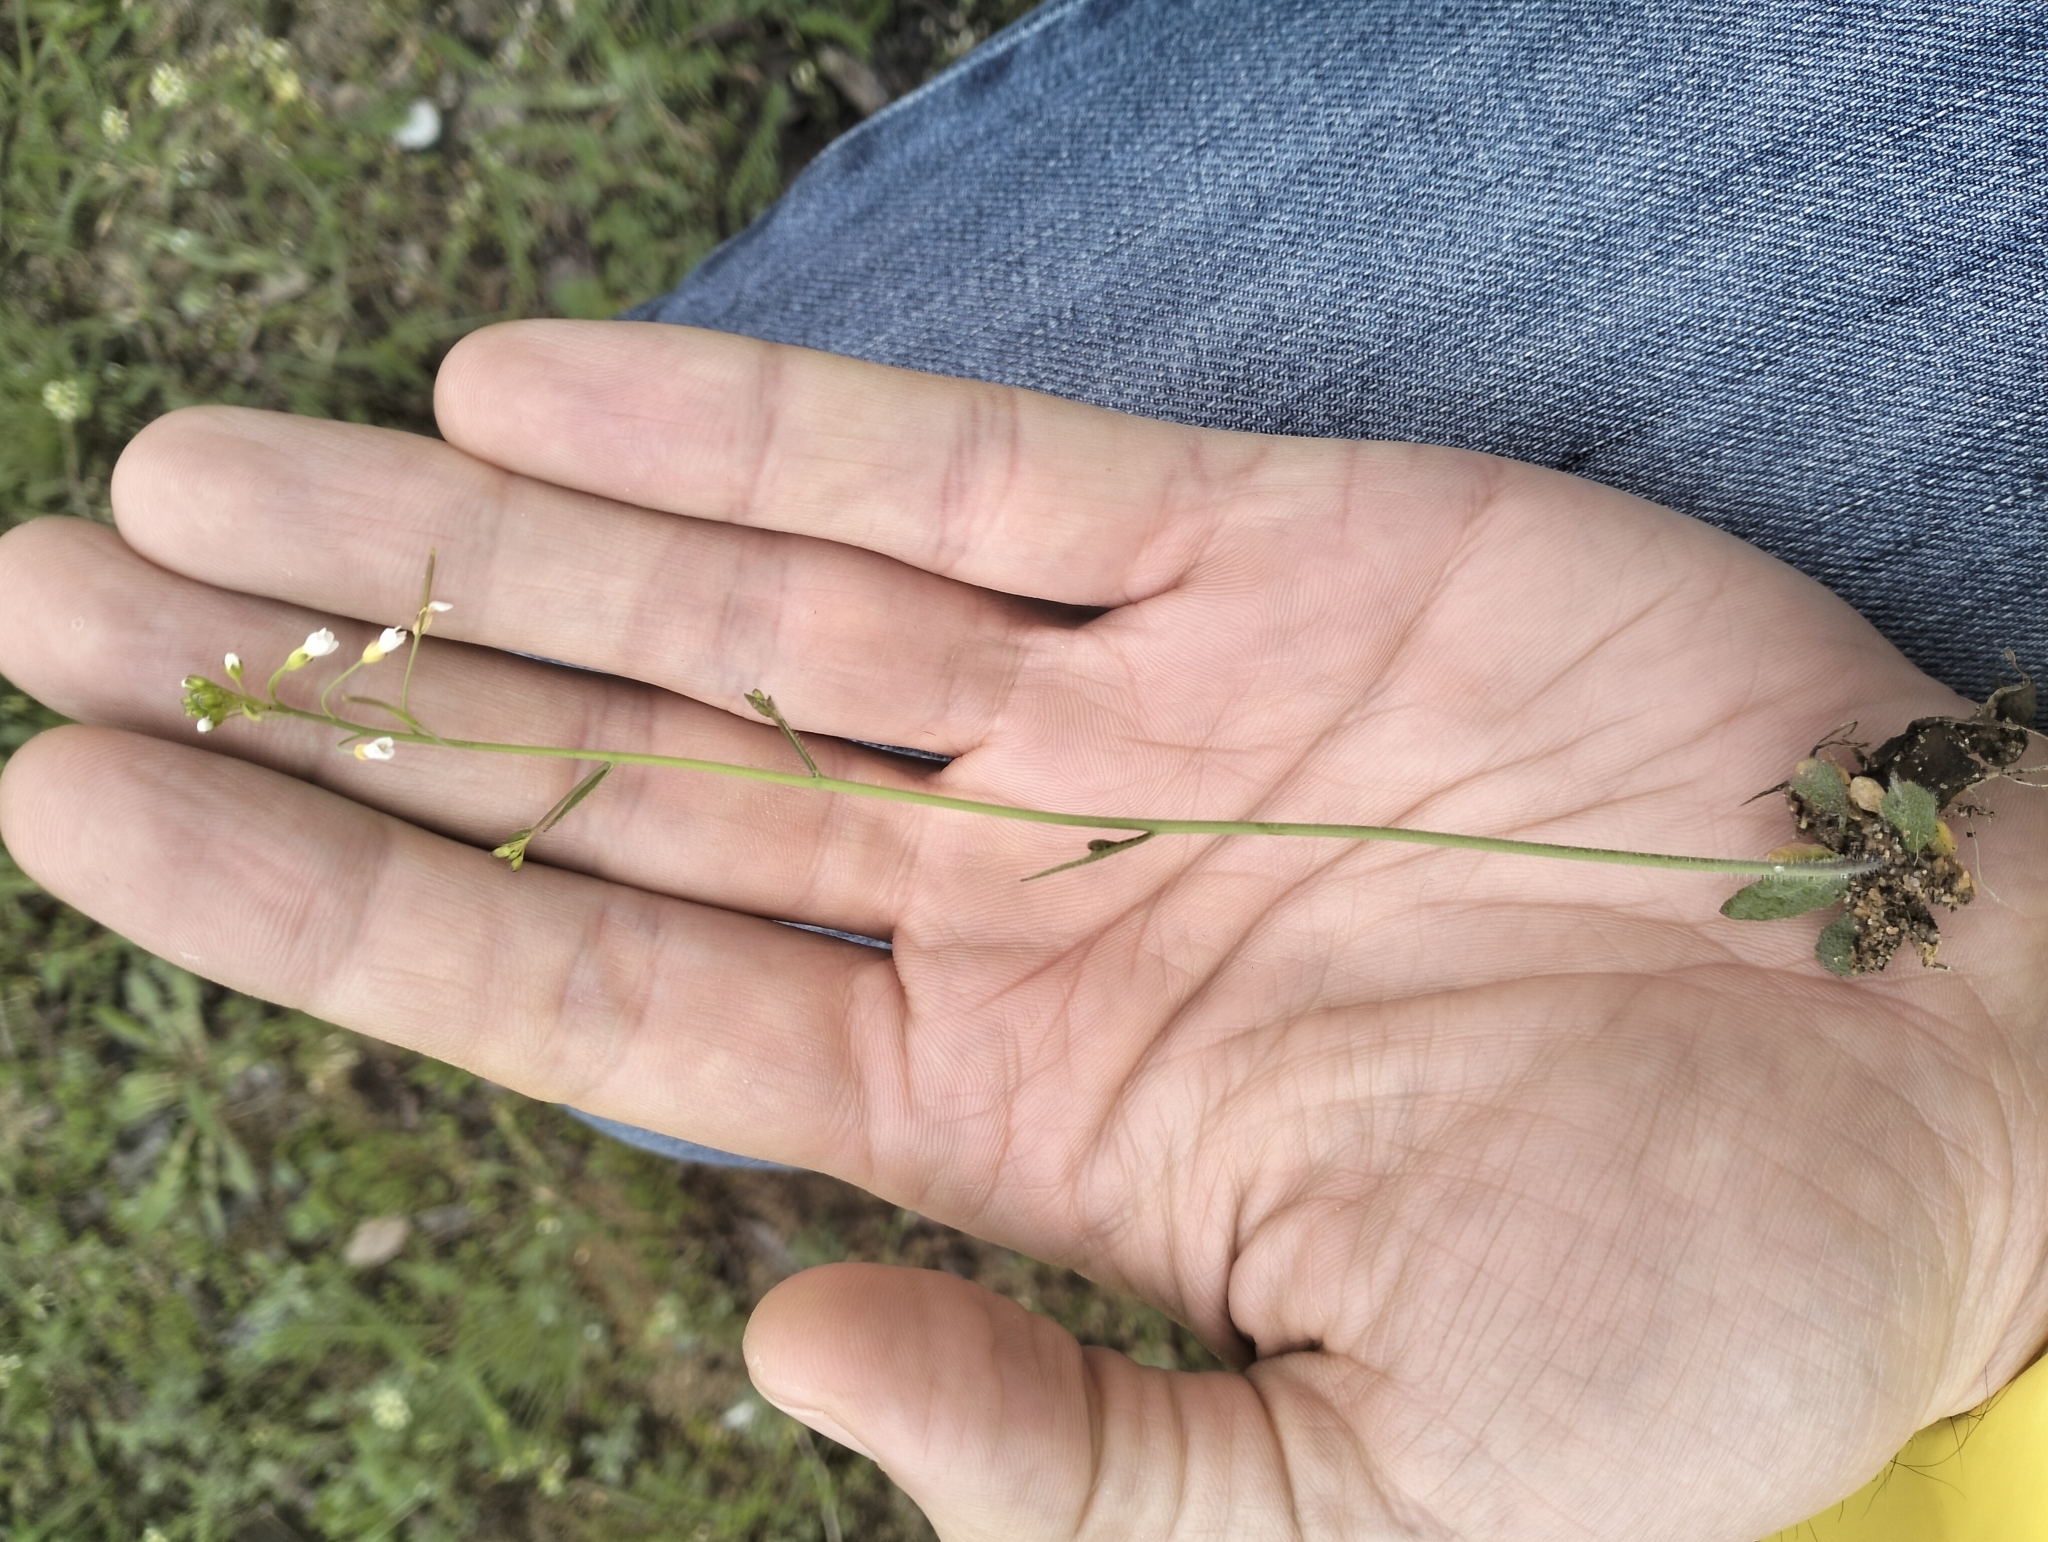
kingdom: Plantae
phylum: Tracheophyta
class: Magnoliopsida
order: Brassicales
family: Brassicaceae
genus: Arabidopsis
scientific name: Arabidopsis thaliana
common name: Thale cress
